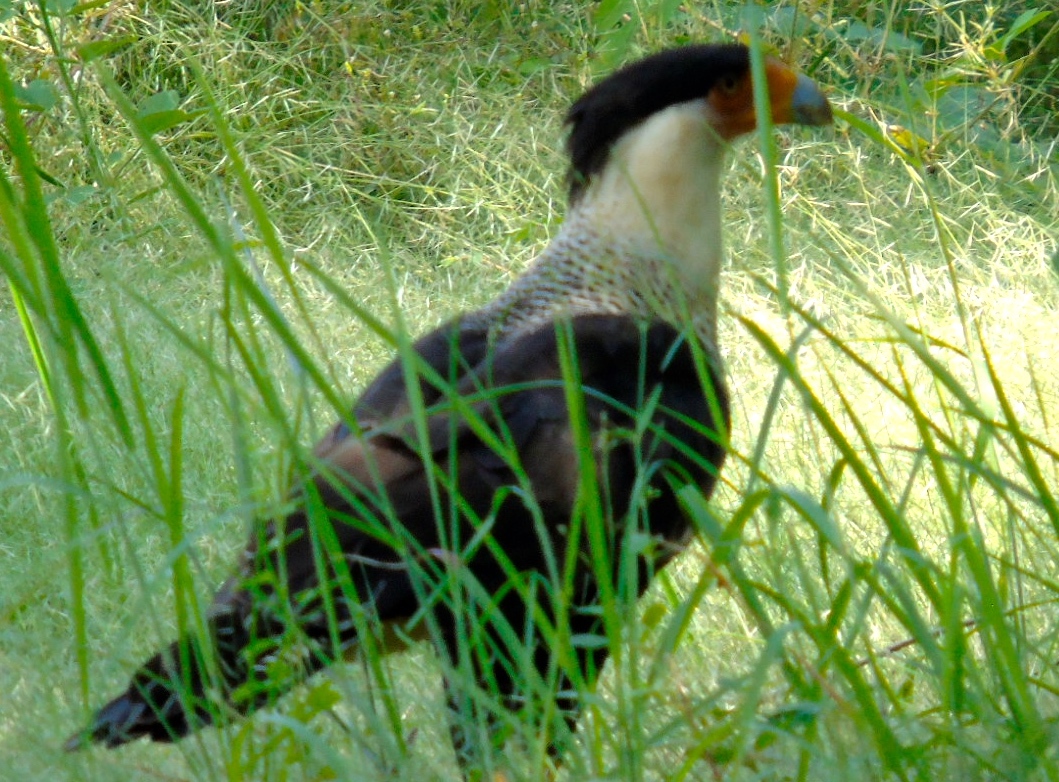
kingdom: Animalia
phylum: Chordata
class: Aves
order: Falconiformes
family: Falconidae
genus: Caracara
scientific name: Caracara plancus
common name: Southern caracara
